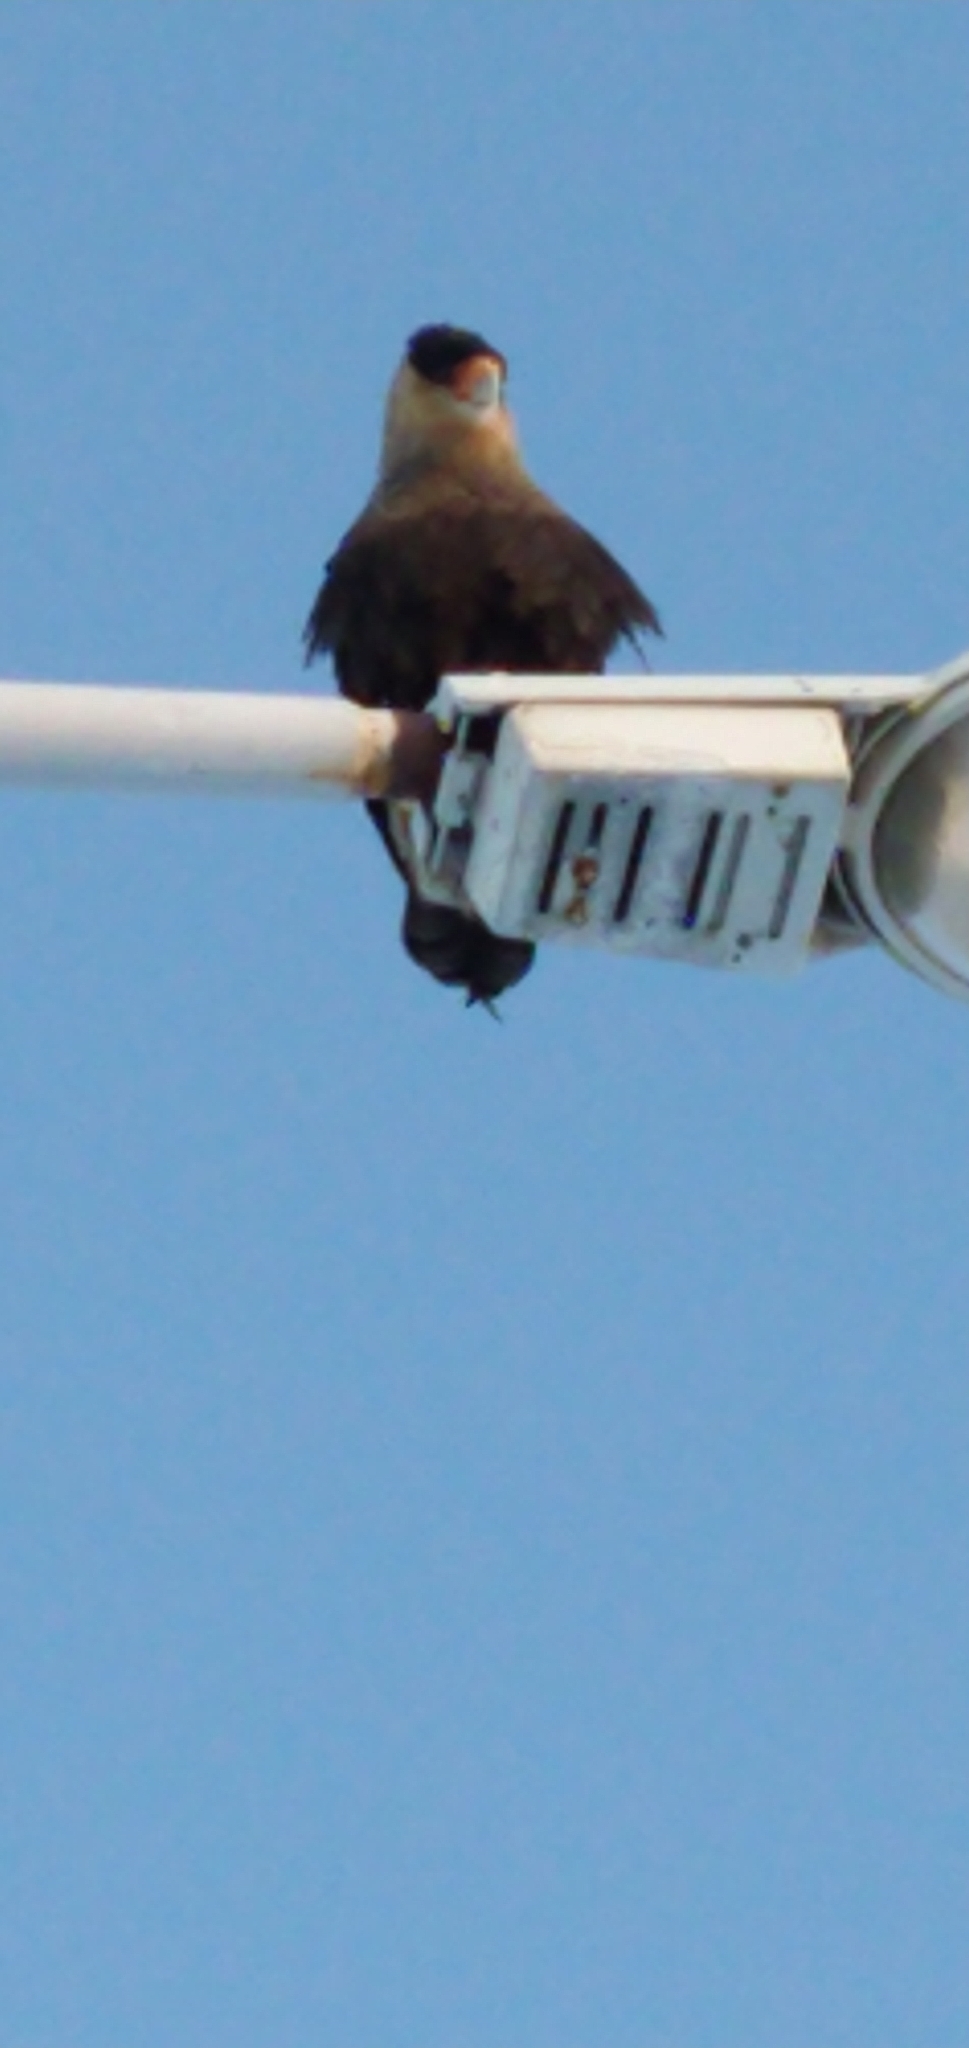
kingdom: Animalia
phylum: Chordata
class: Aves
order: Falconiformes
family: Falconidae
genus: Caracara
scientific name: Caracara plancus
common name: Southern caracara
